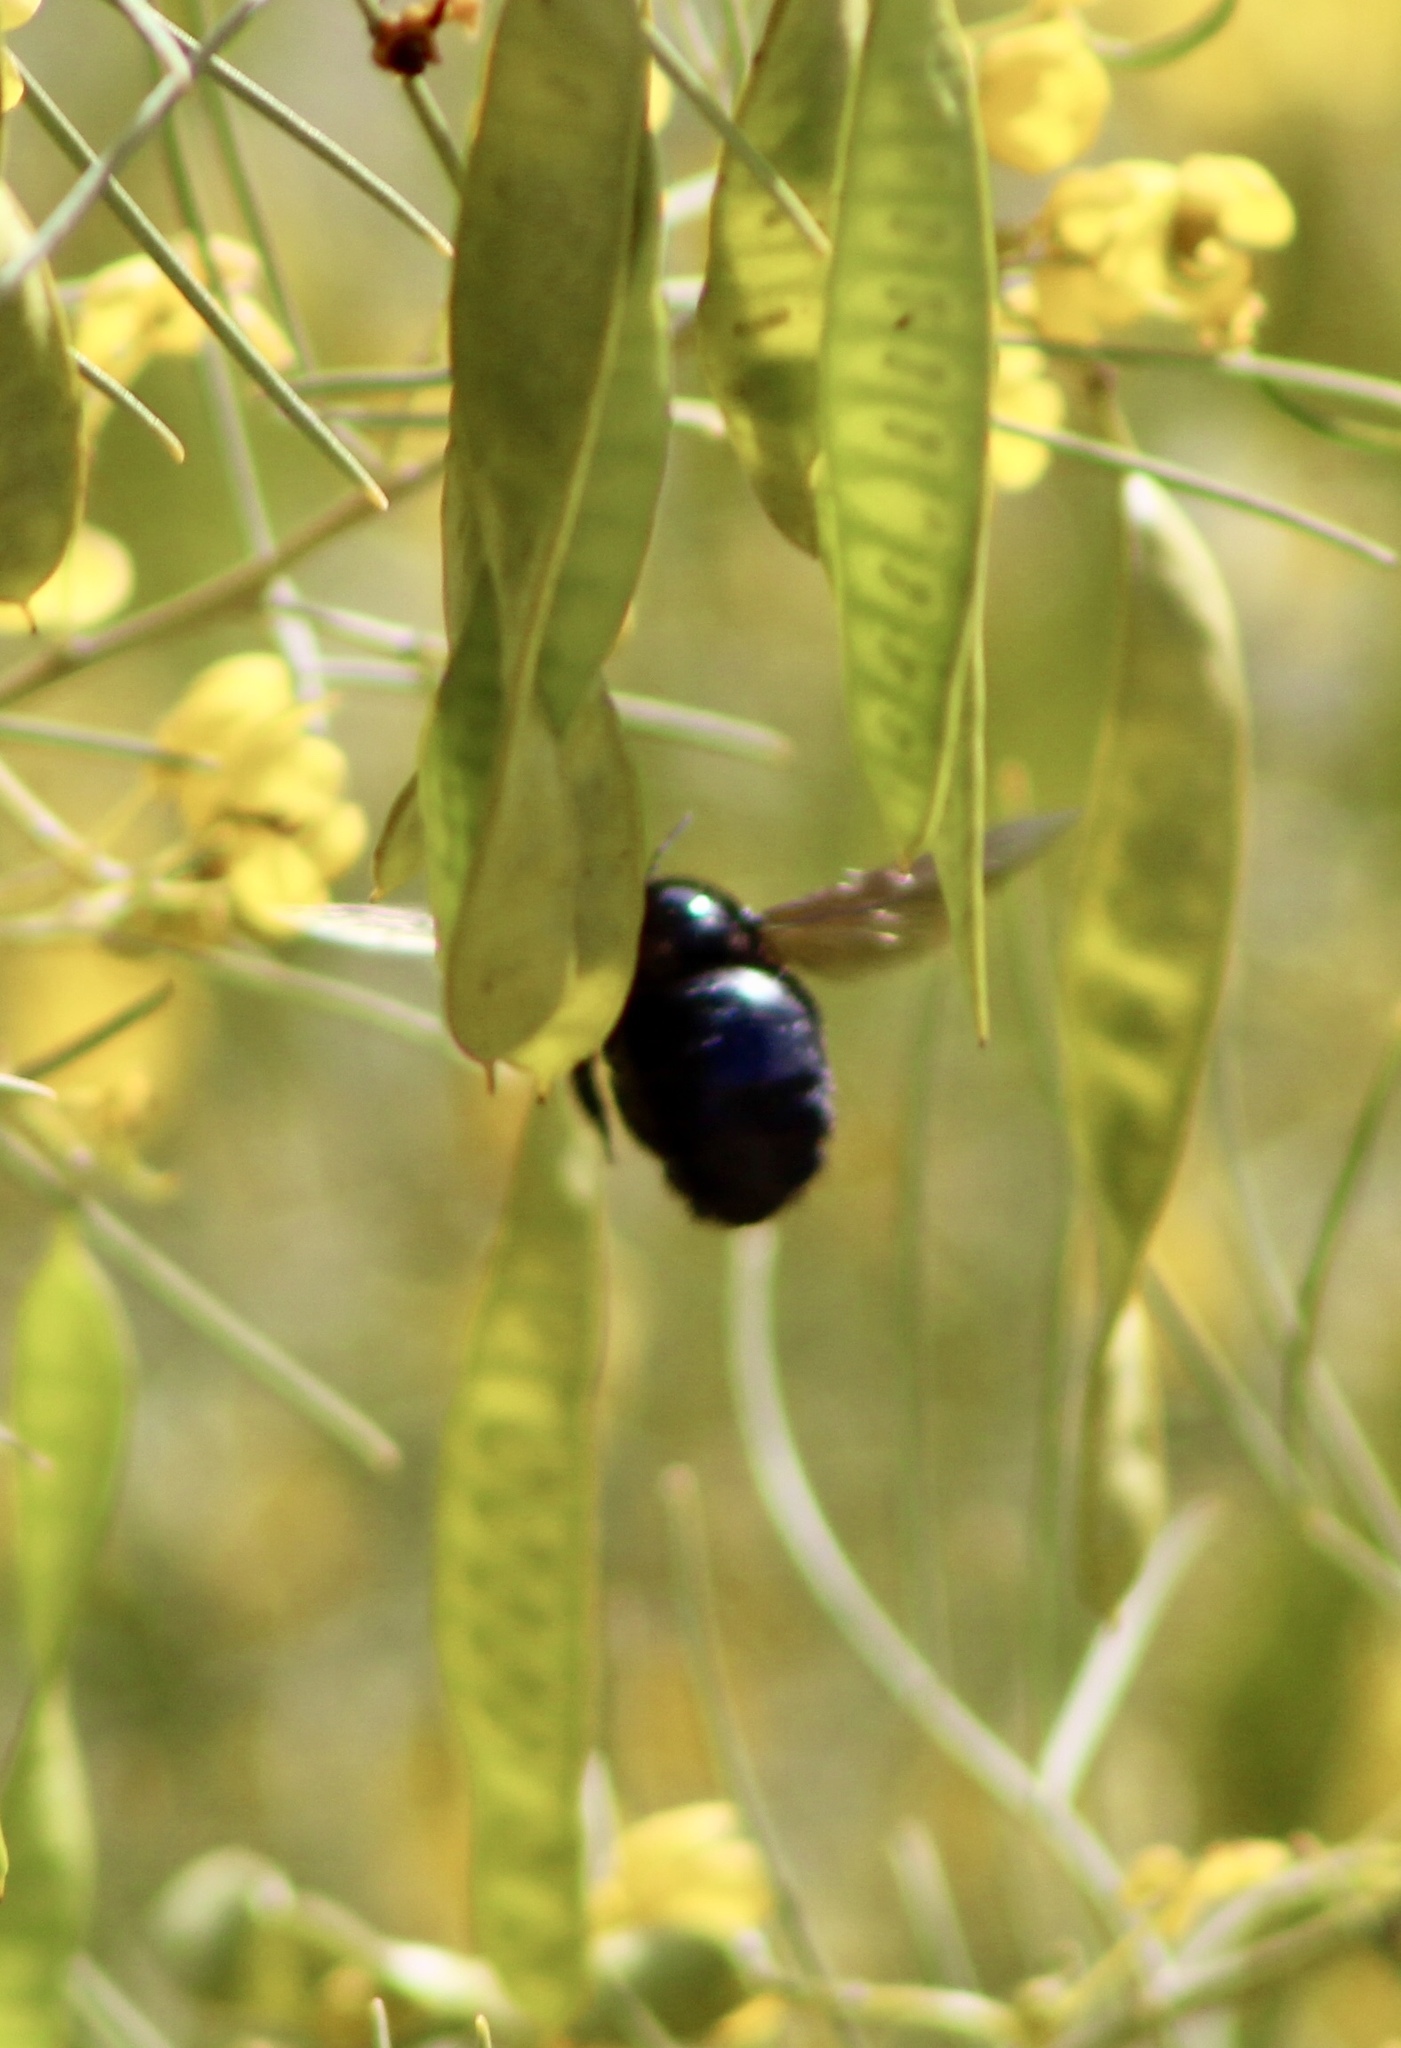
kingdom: Animalia
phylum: Arthropoda
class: Insecta
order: Hymenoptera
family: Apidae
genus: Xylocopa
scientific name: Xylocopa californica
